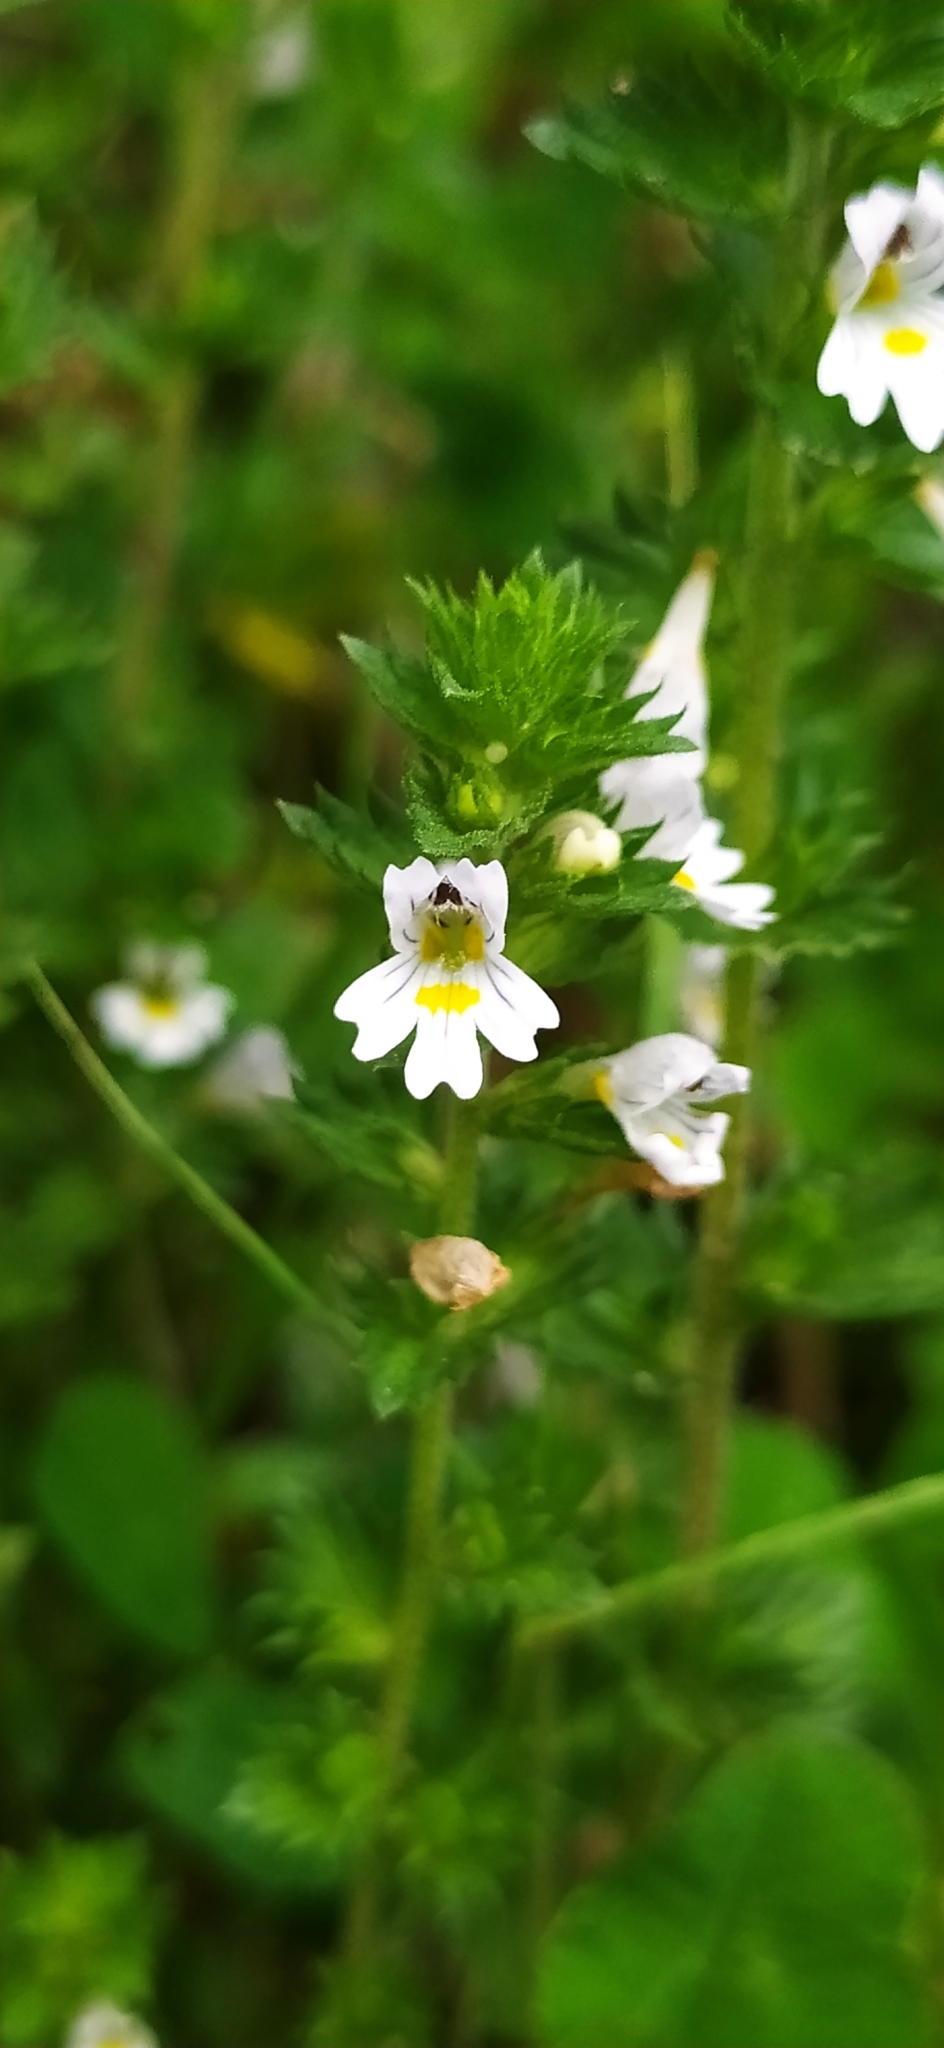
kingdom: Plantae
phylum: Tracheophyta
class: Magnoliopsida
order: Lamiales
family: Orobanchaceae
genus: Euphrasia
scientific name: Euphrasia stricta
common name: Drug eyebright
